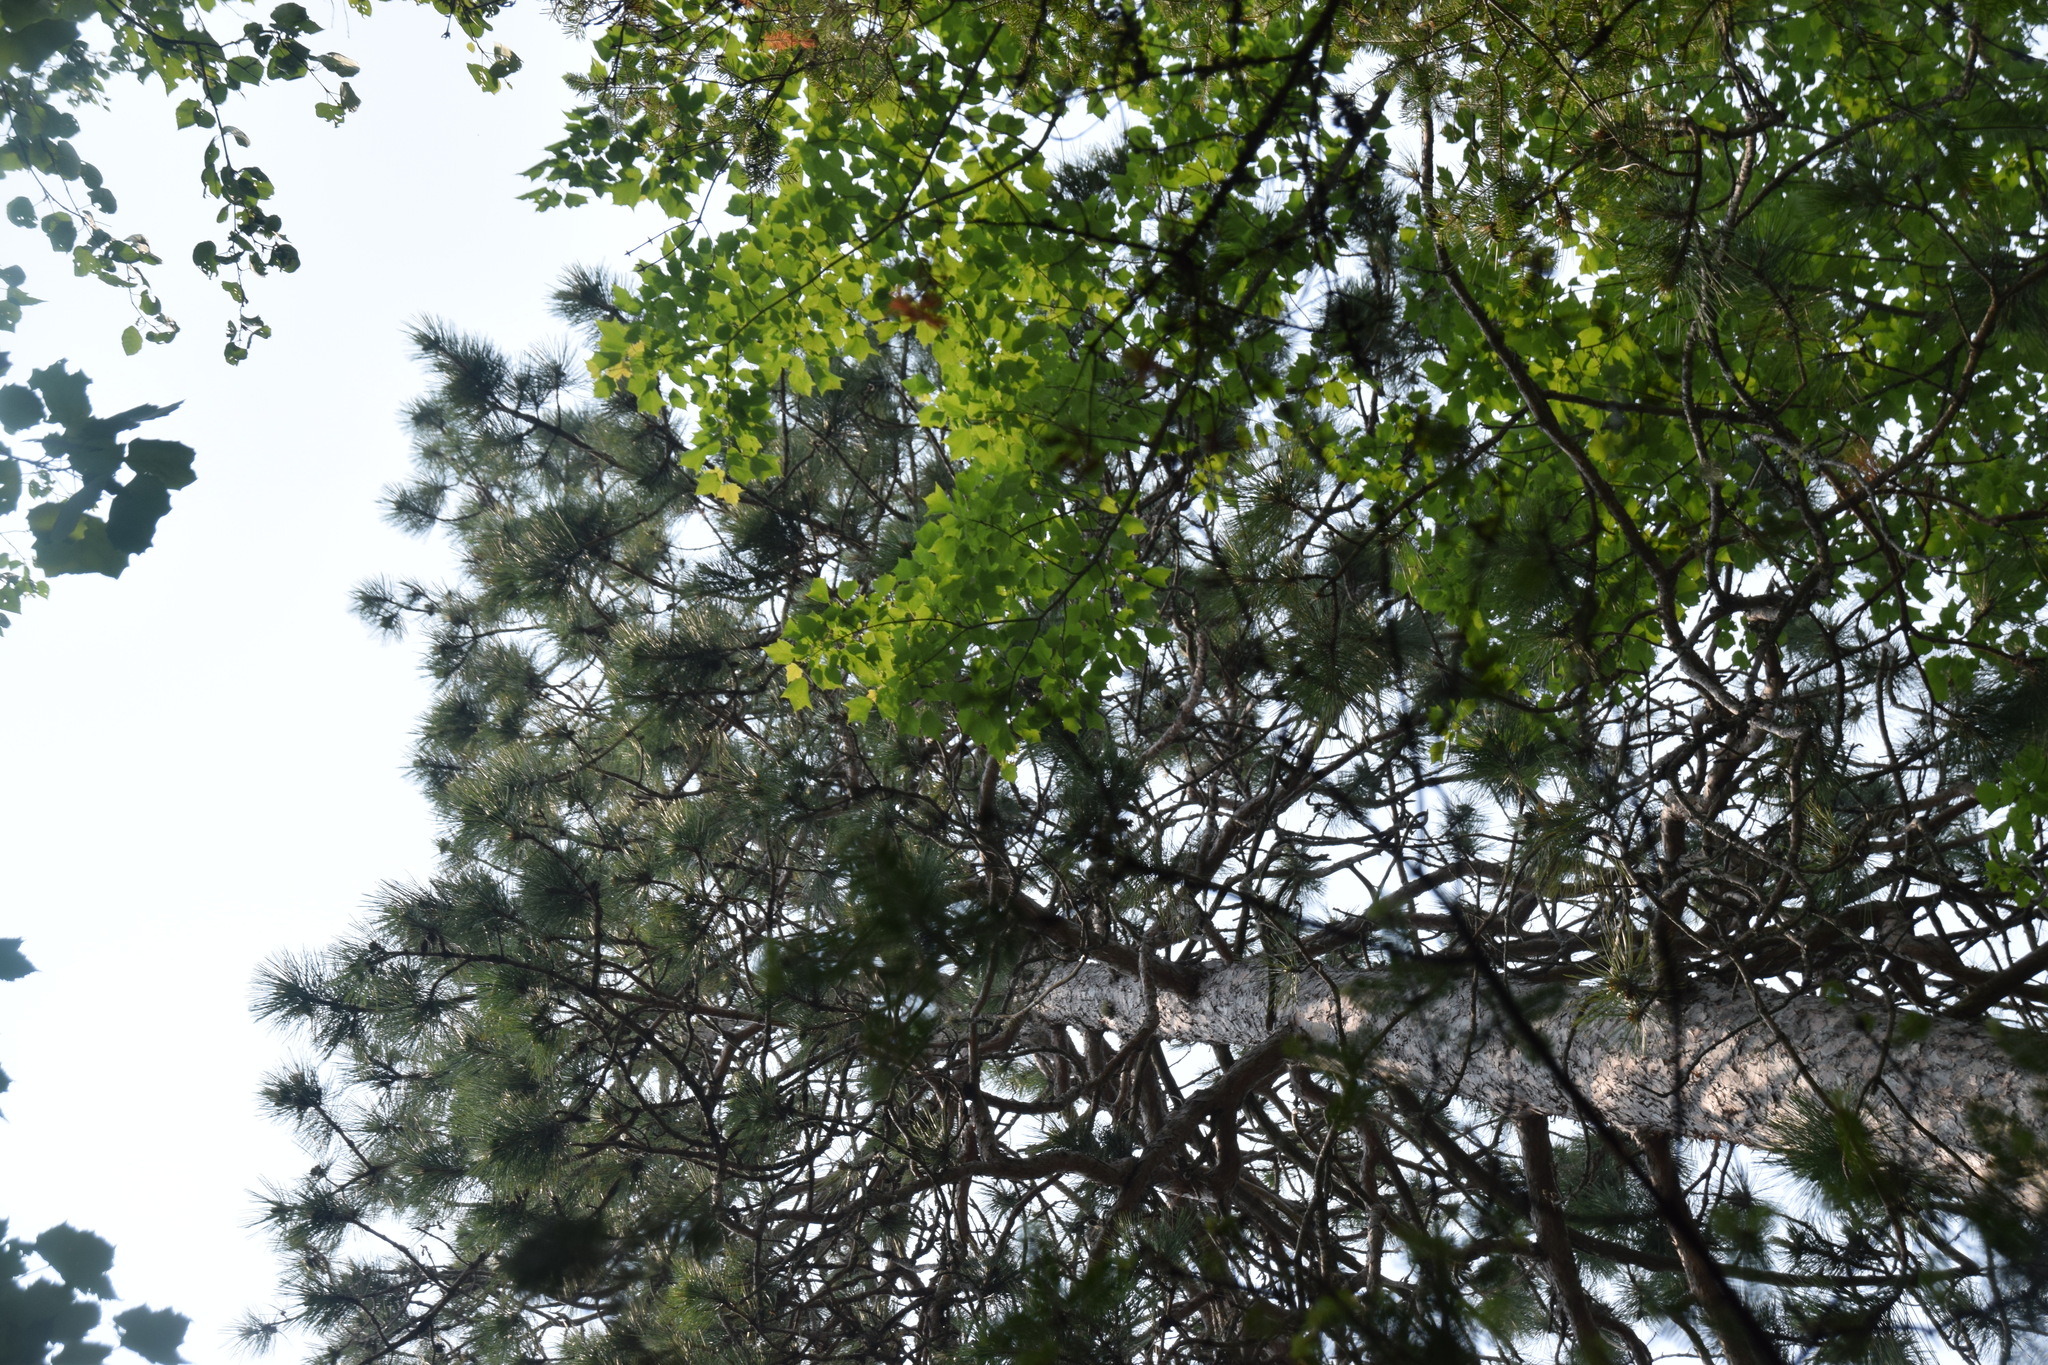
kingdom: Plantae
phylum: Tracheophyta
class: Pinopsida
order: Pinales
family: Pinaceae
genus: Pinus
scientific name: Pinus resinosa
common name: Norway pine
